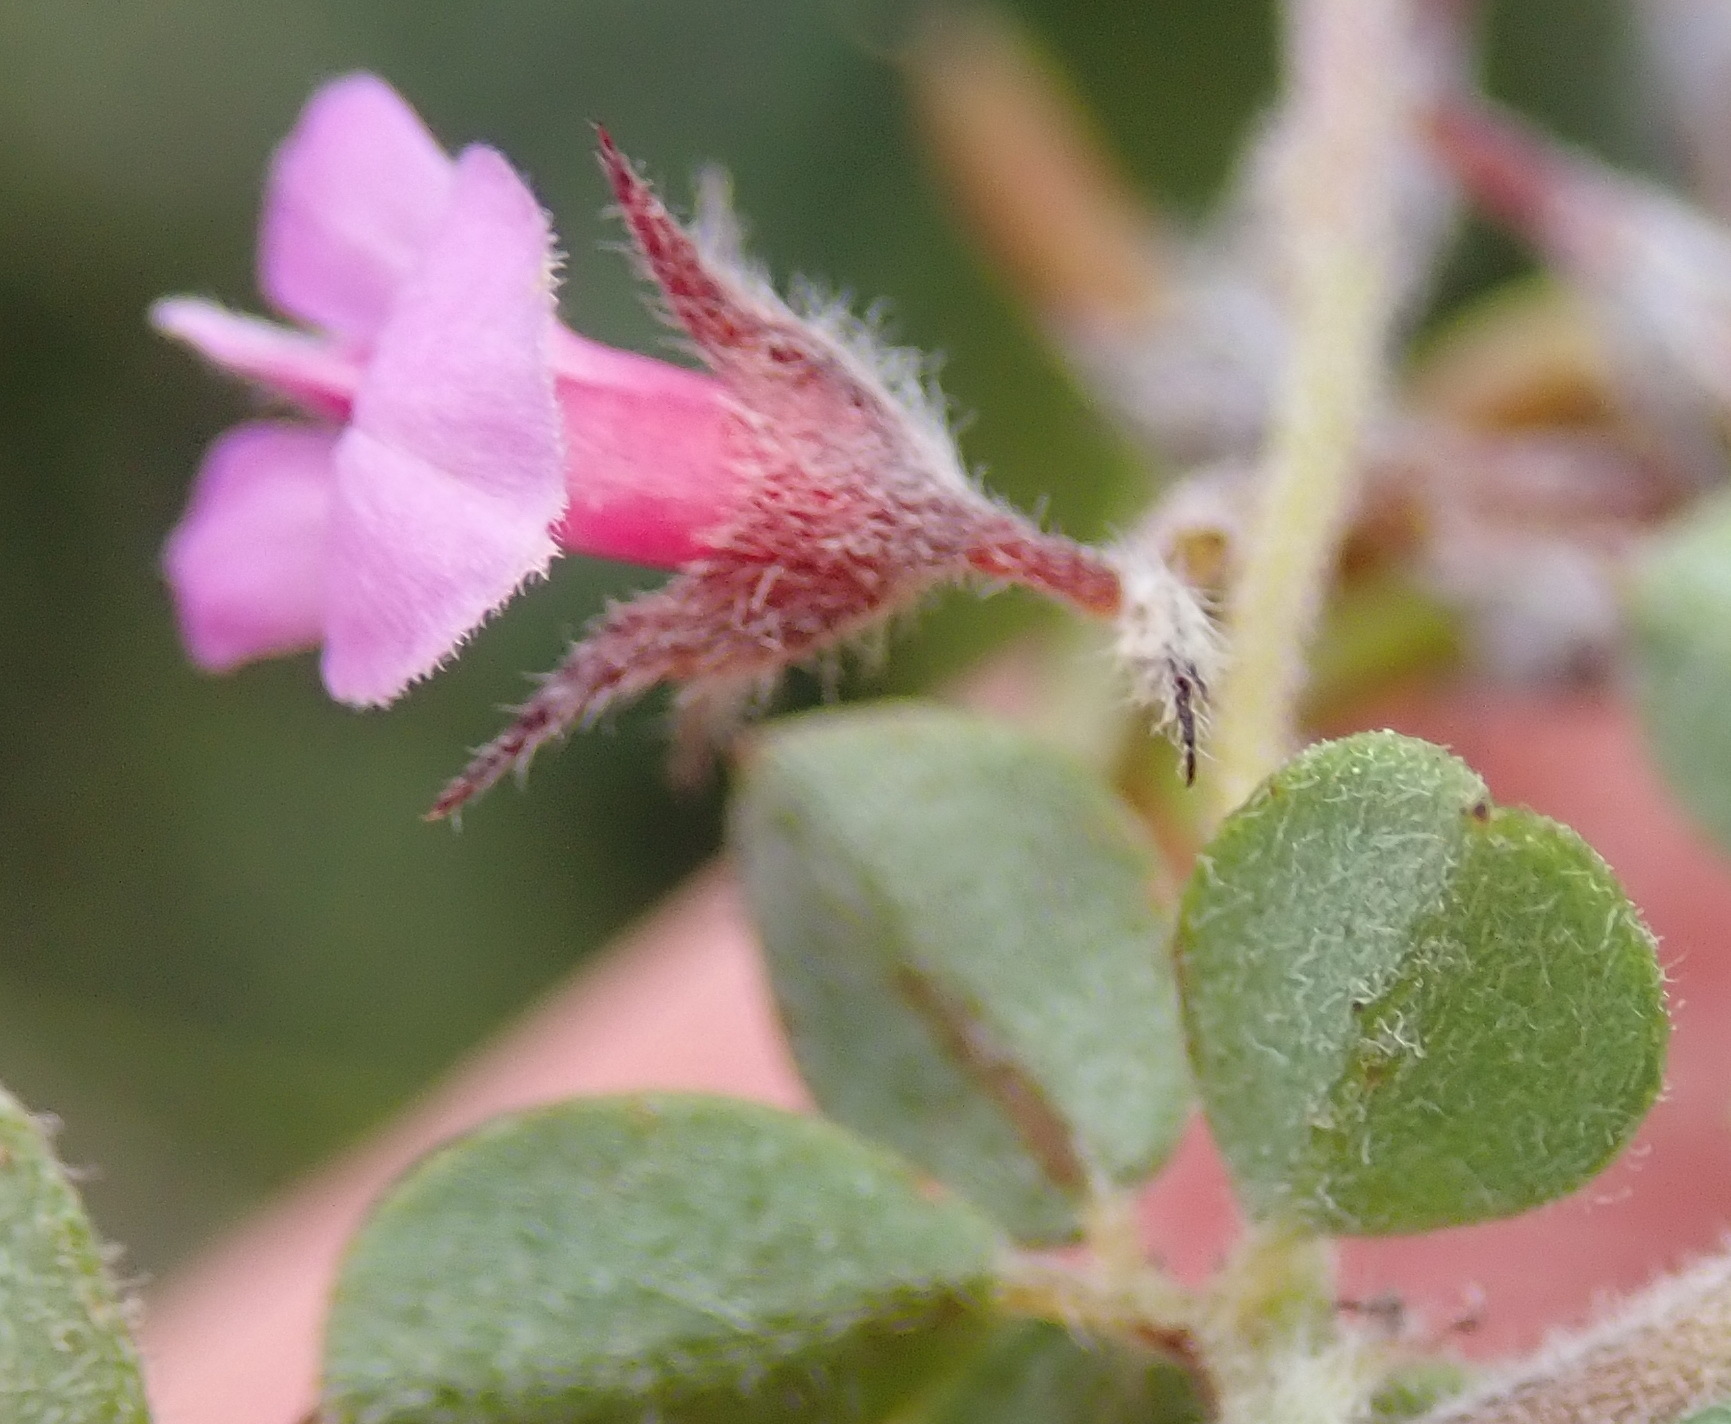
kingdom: Plantae
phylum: Tracheophyta
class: Magnoliopsida
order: Fabales
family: Fabaceae
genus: Indigofera
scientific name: Indigofera alopecuroides
